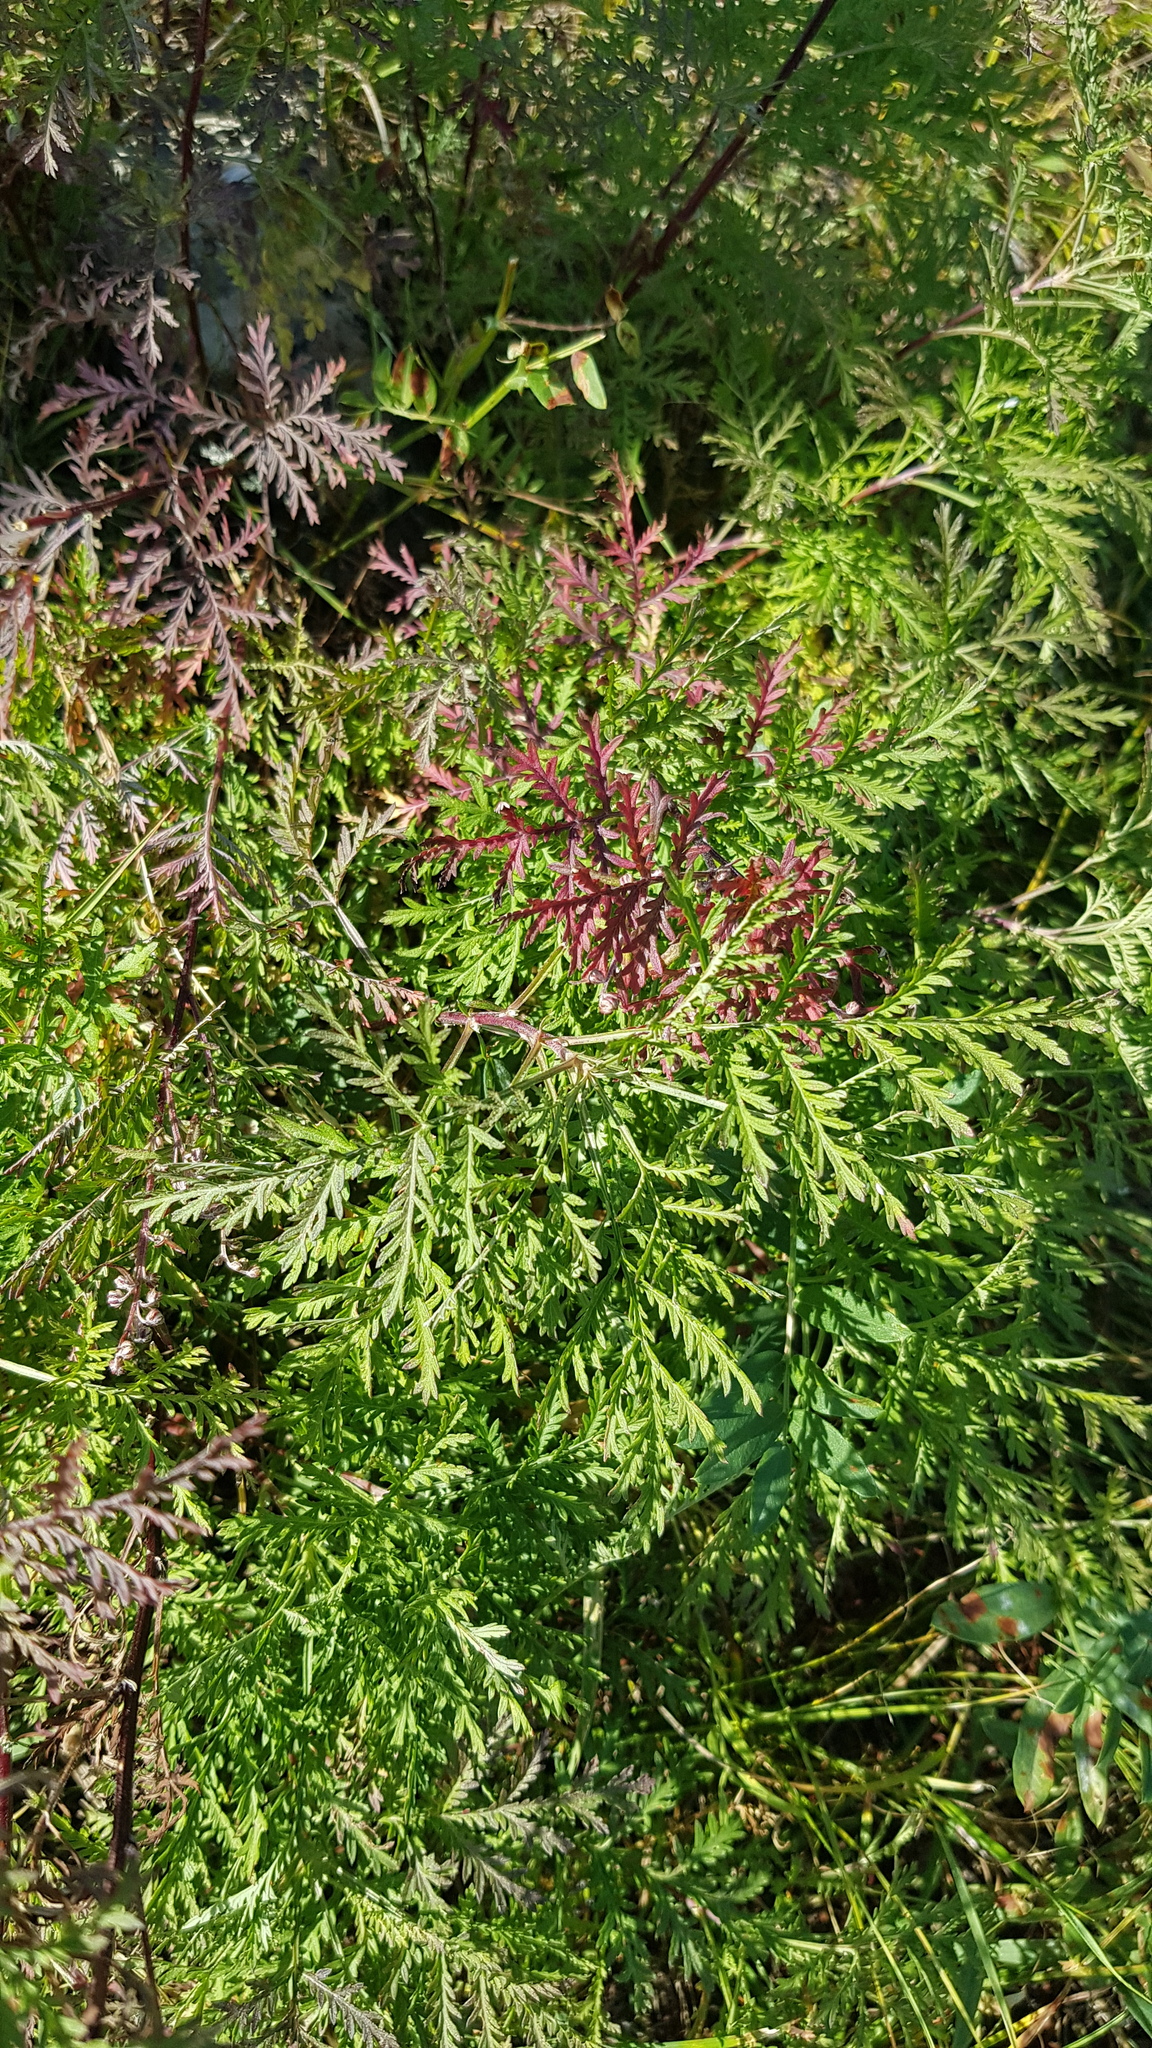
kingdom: Plantae
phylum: Tracheophyta
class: Magnoliopsida
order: Asterales
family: Asteraceae
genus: Artemisia
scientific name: Artemisia tanacetifolia
